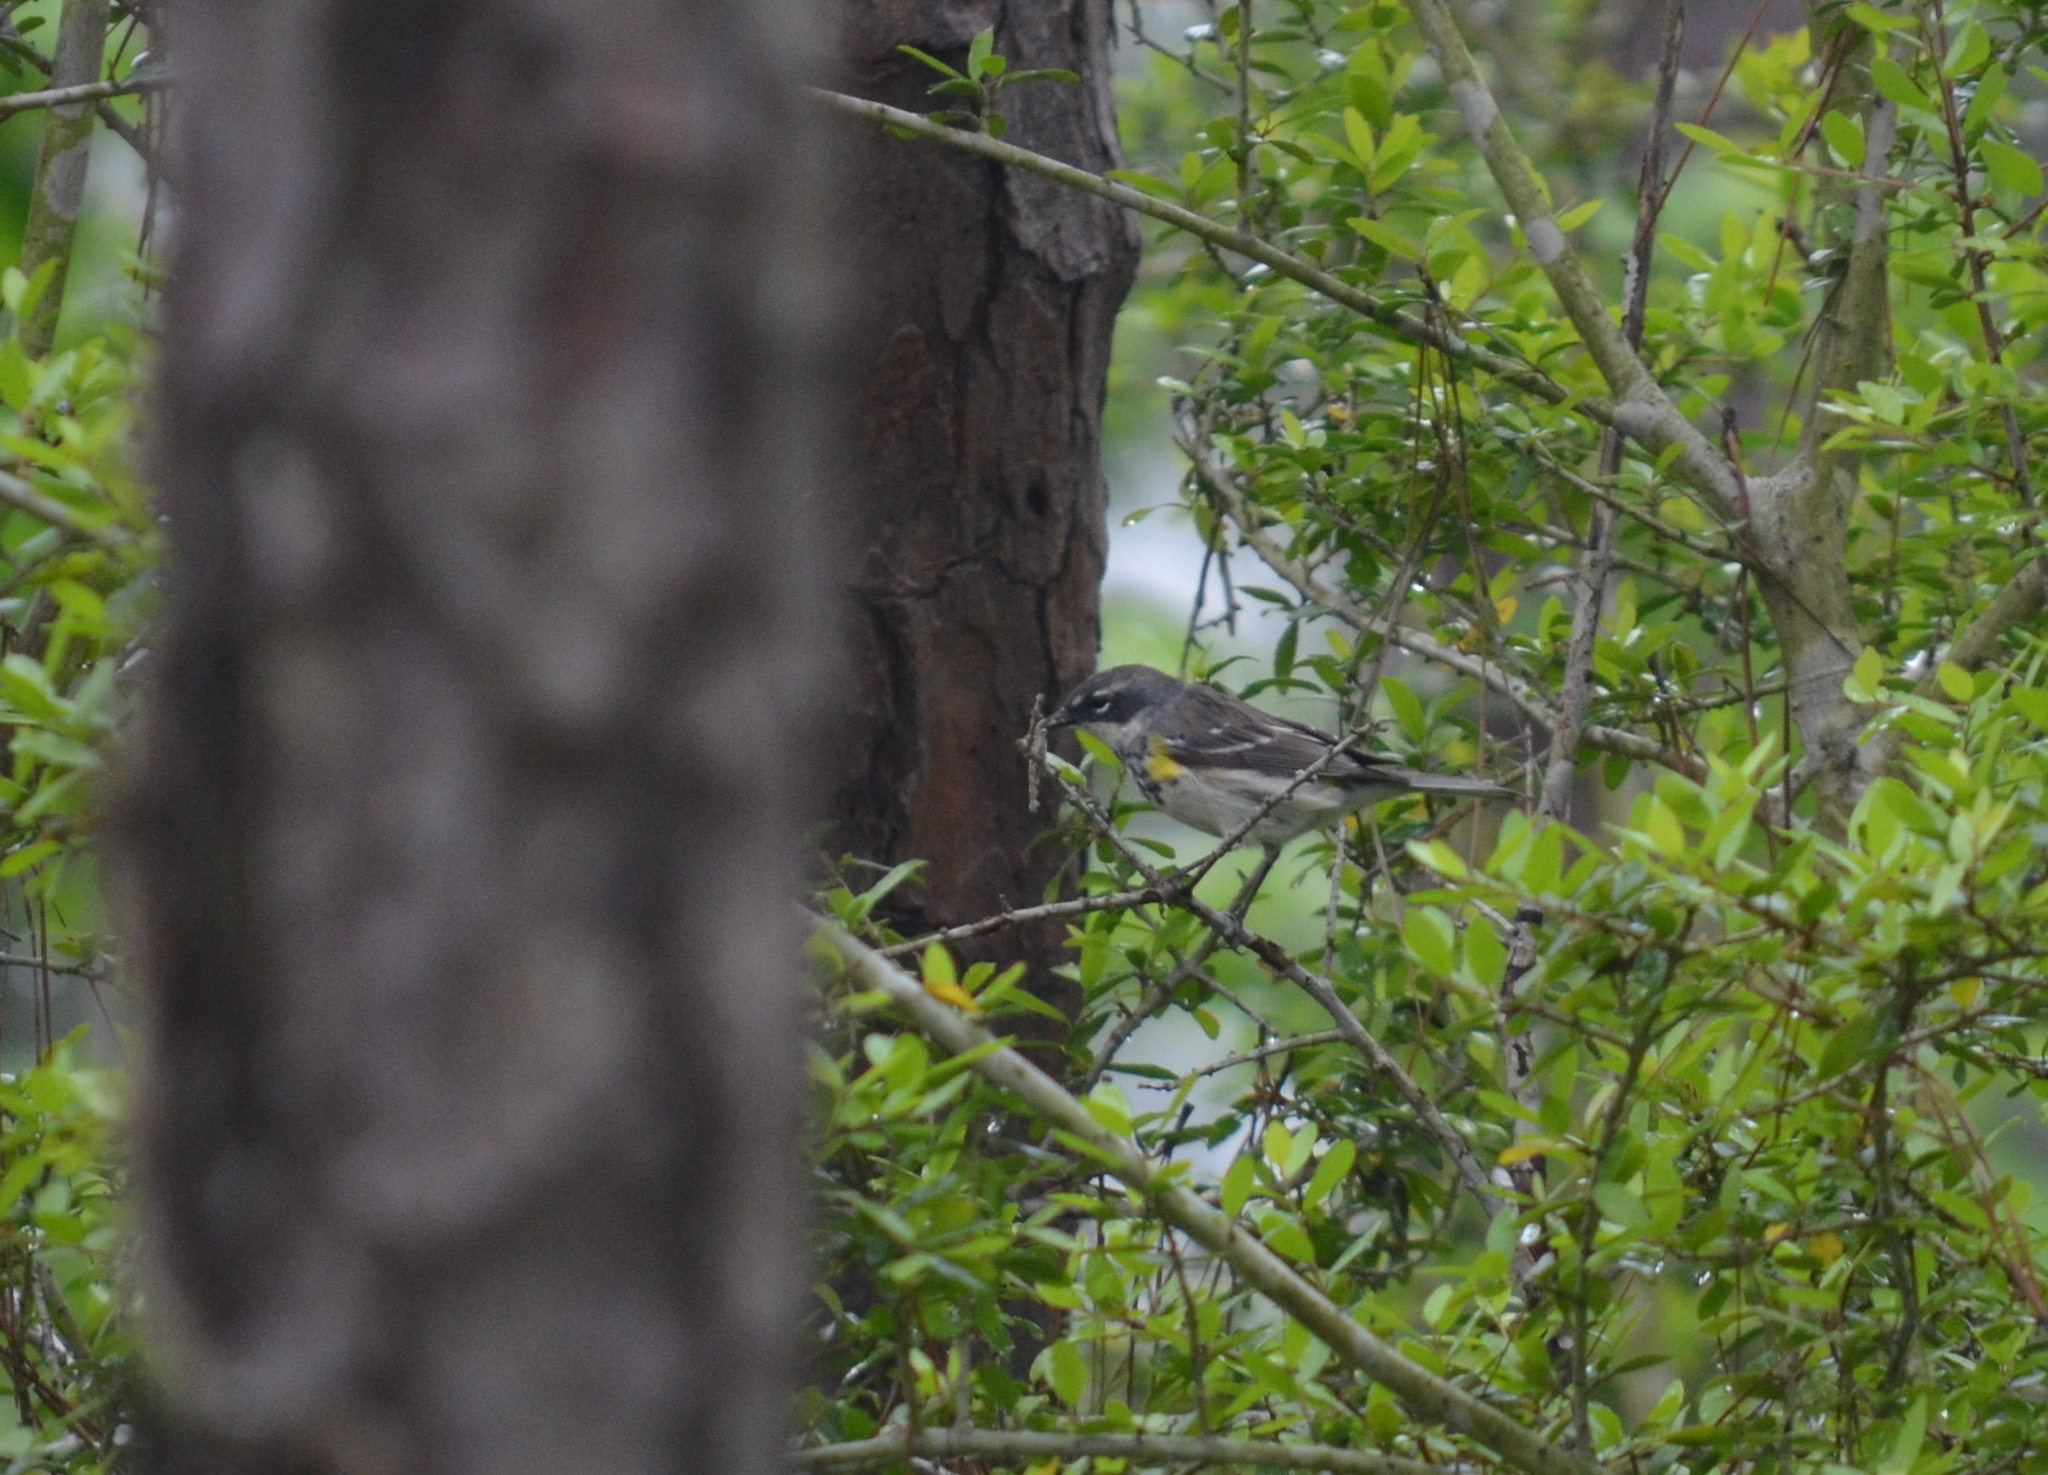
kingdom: Animalia
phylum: Chordata
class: Aves
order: Passeriformes
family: Parulidae
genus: Setophaga
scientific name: Setophaga coronata
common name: Myrtle warbler
